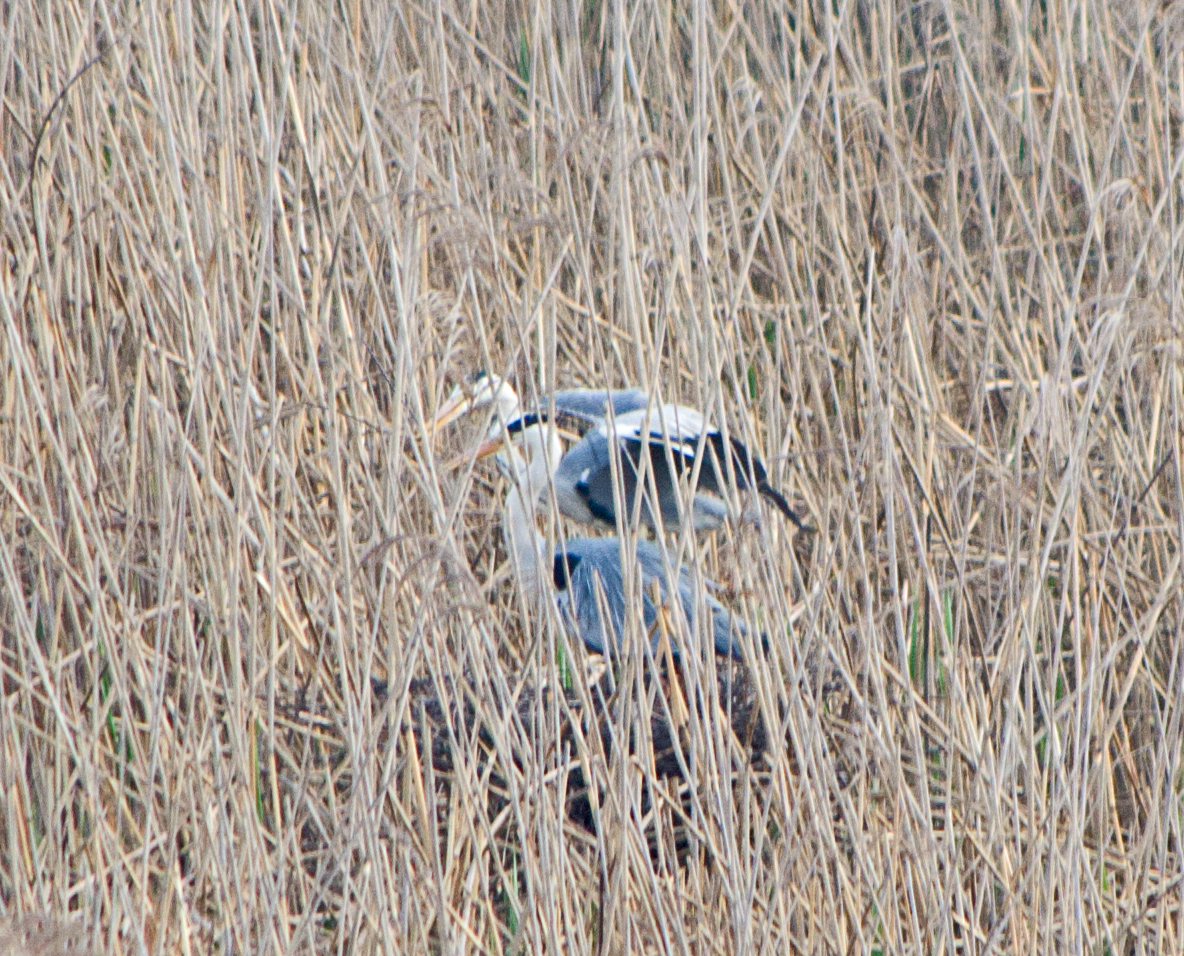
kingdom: Animalia
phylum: Chordata
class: Aves
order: Pelecaniformes
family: Ardeidae
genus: Ardea
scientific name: Ardea cinerea
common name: Grey heron
